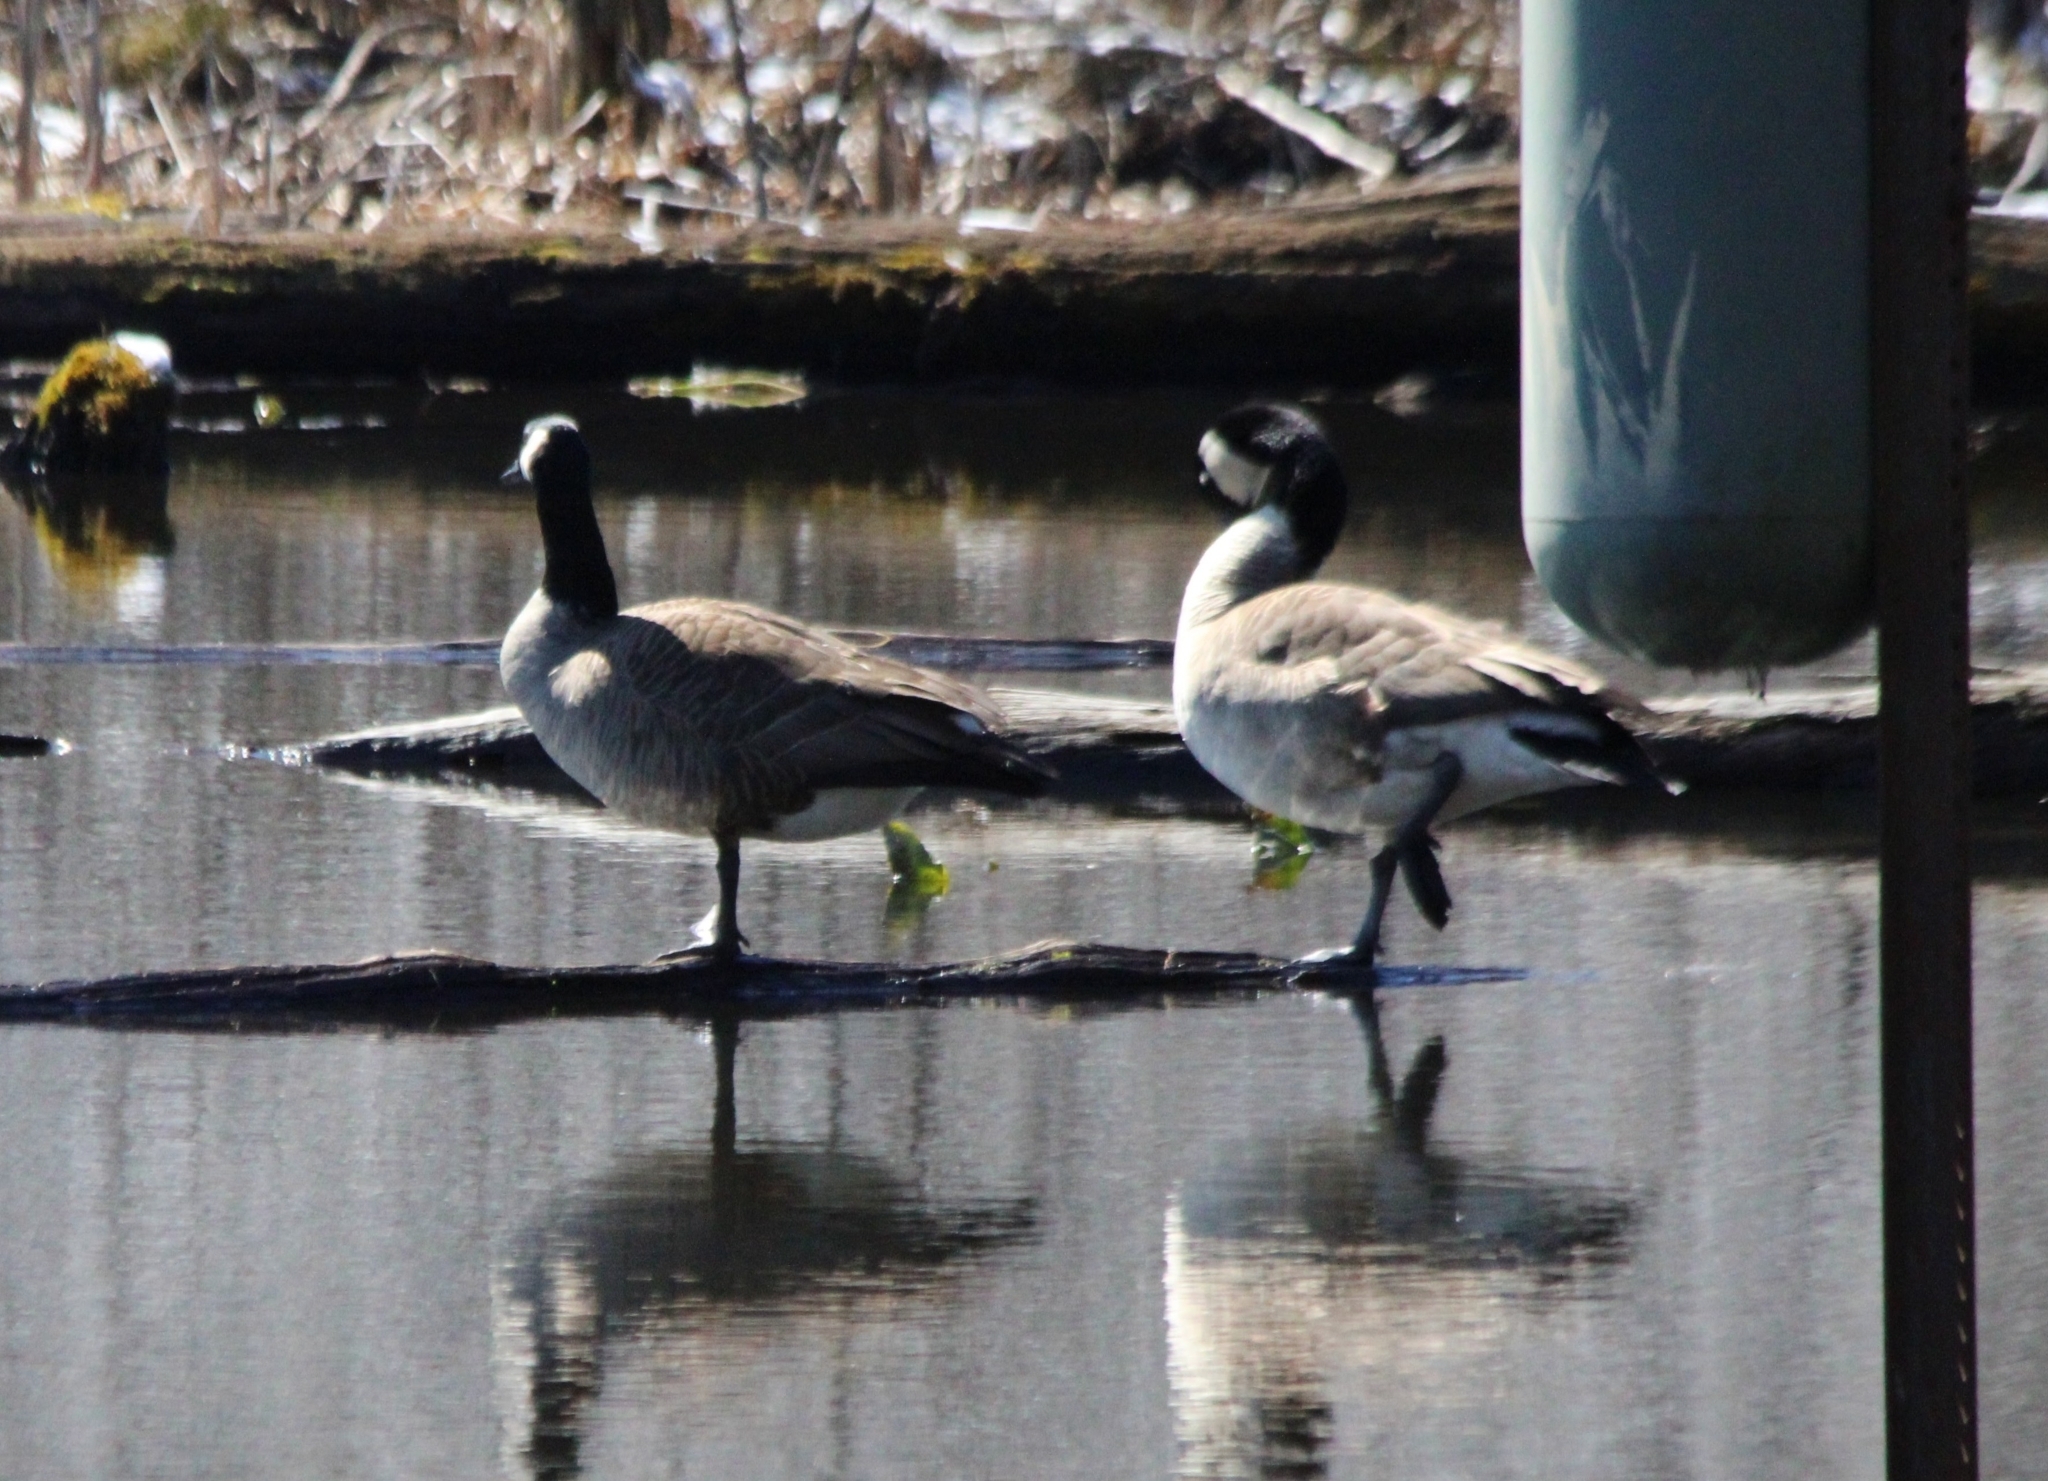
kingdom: Animalia
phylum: Chordata
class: Aves
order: Anseriformes
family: Anatidae
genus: Branta
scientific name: Branta canadensis
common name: Canada goose
